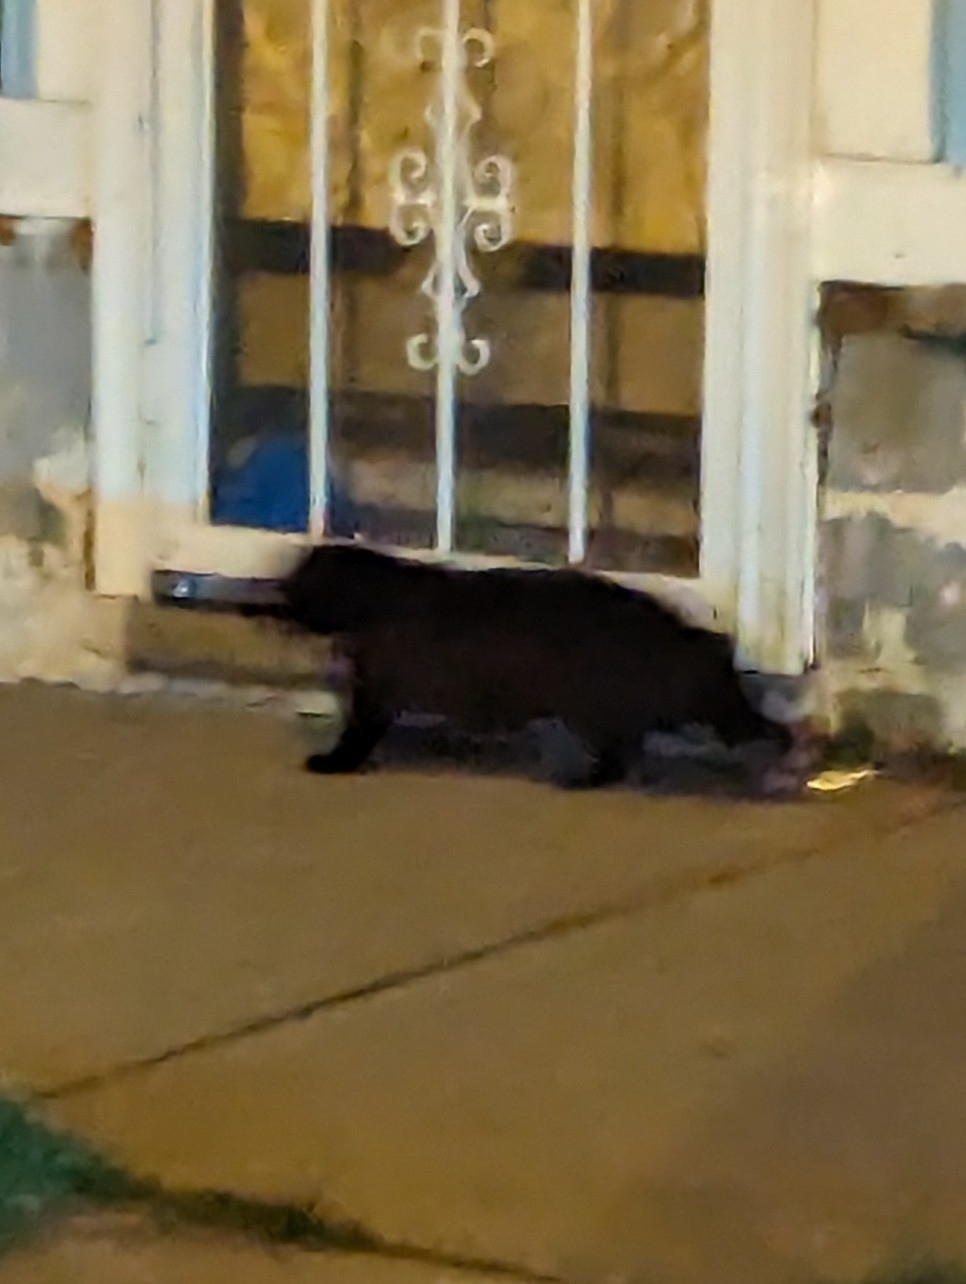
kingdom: Animalia
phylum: Chordata
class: Mammalia
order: Carnivora
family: Felidae
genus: Felis
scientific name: Felis catus
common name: Domestic cat
